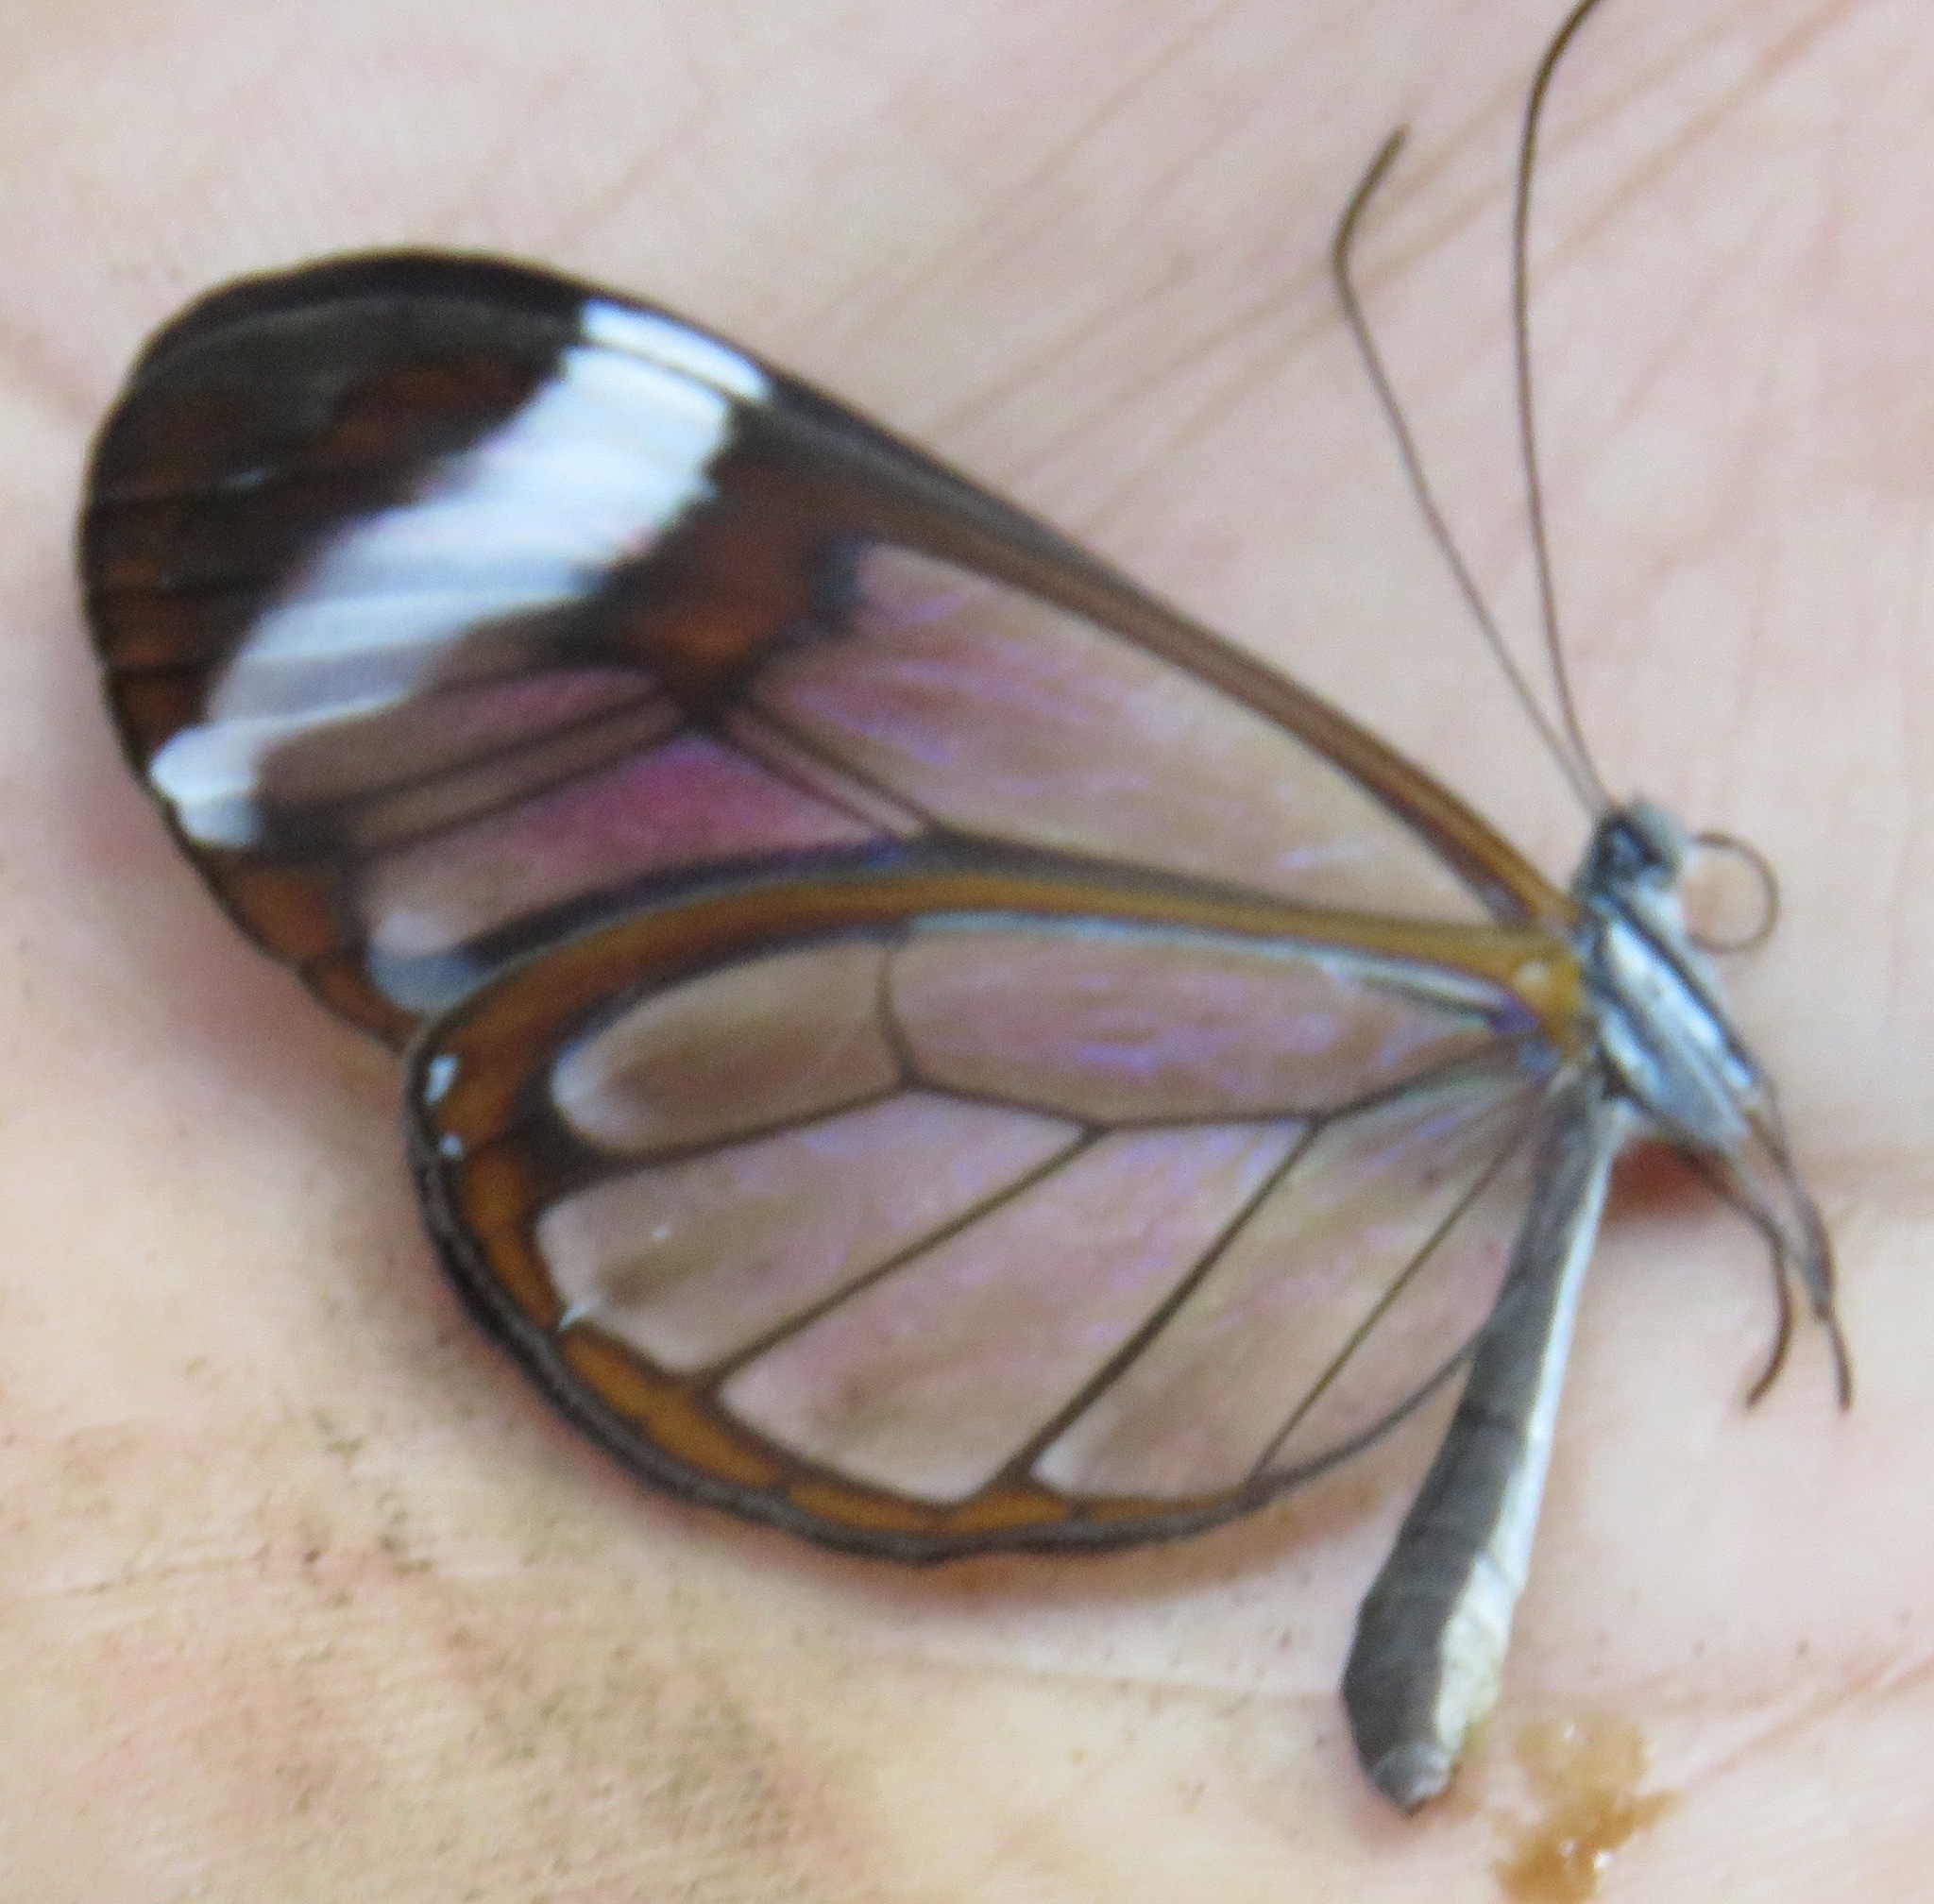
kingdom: Animalia
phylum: Arthropoda
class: Insecta
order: Lepidoptera
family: Nymphalidae
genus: Greta
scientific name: Greta morgane
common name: Thick-tipped greta
